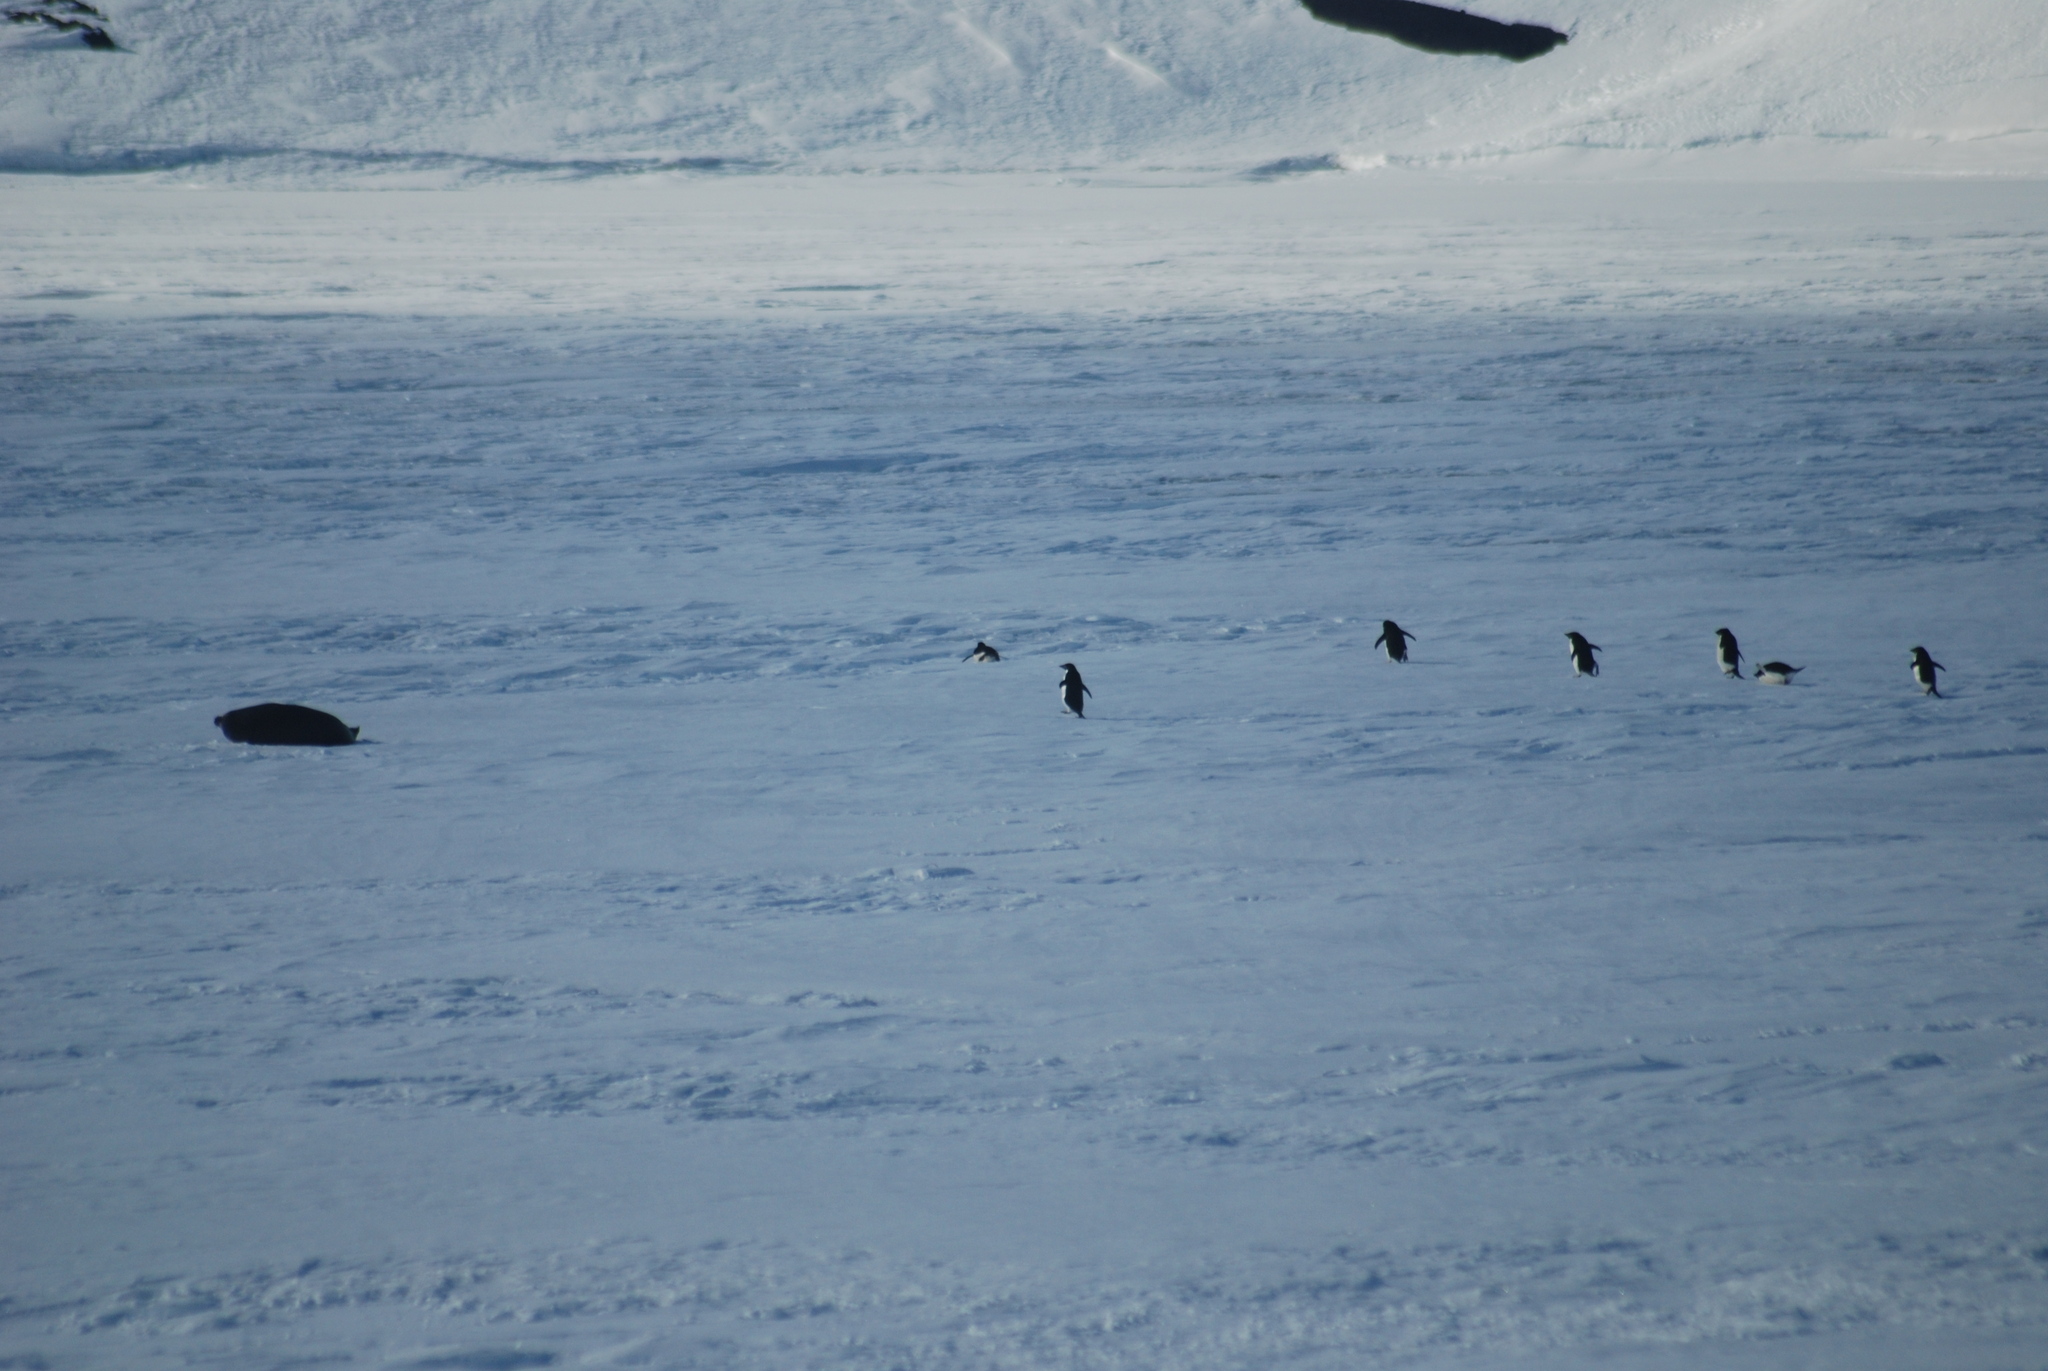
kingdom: Animalia
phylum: Chordata
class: Aves
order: Sphenisciformes
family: Spheniscidae
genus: Pygoscelis
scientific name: Pygoscelis adeliae
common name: Adelie penguin
